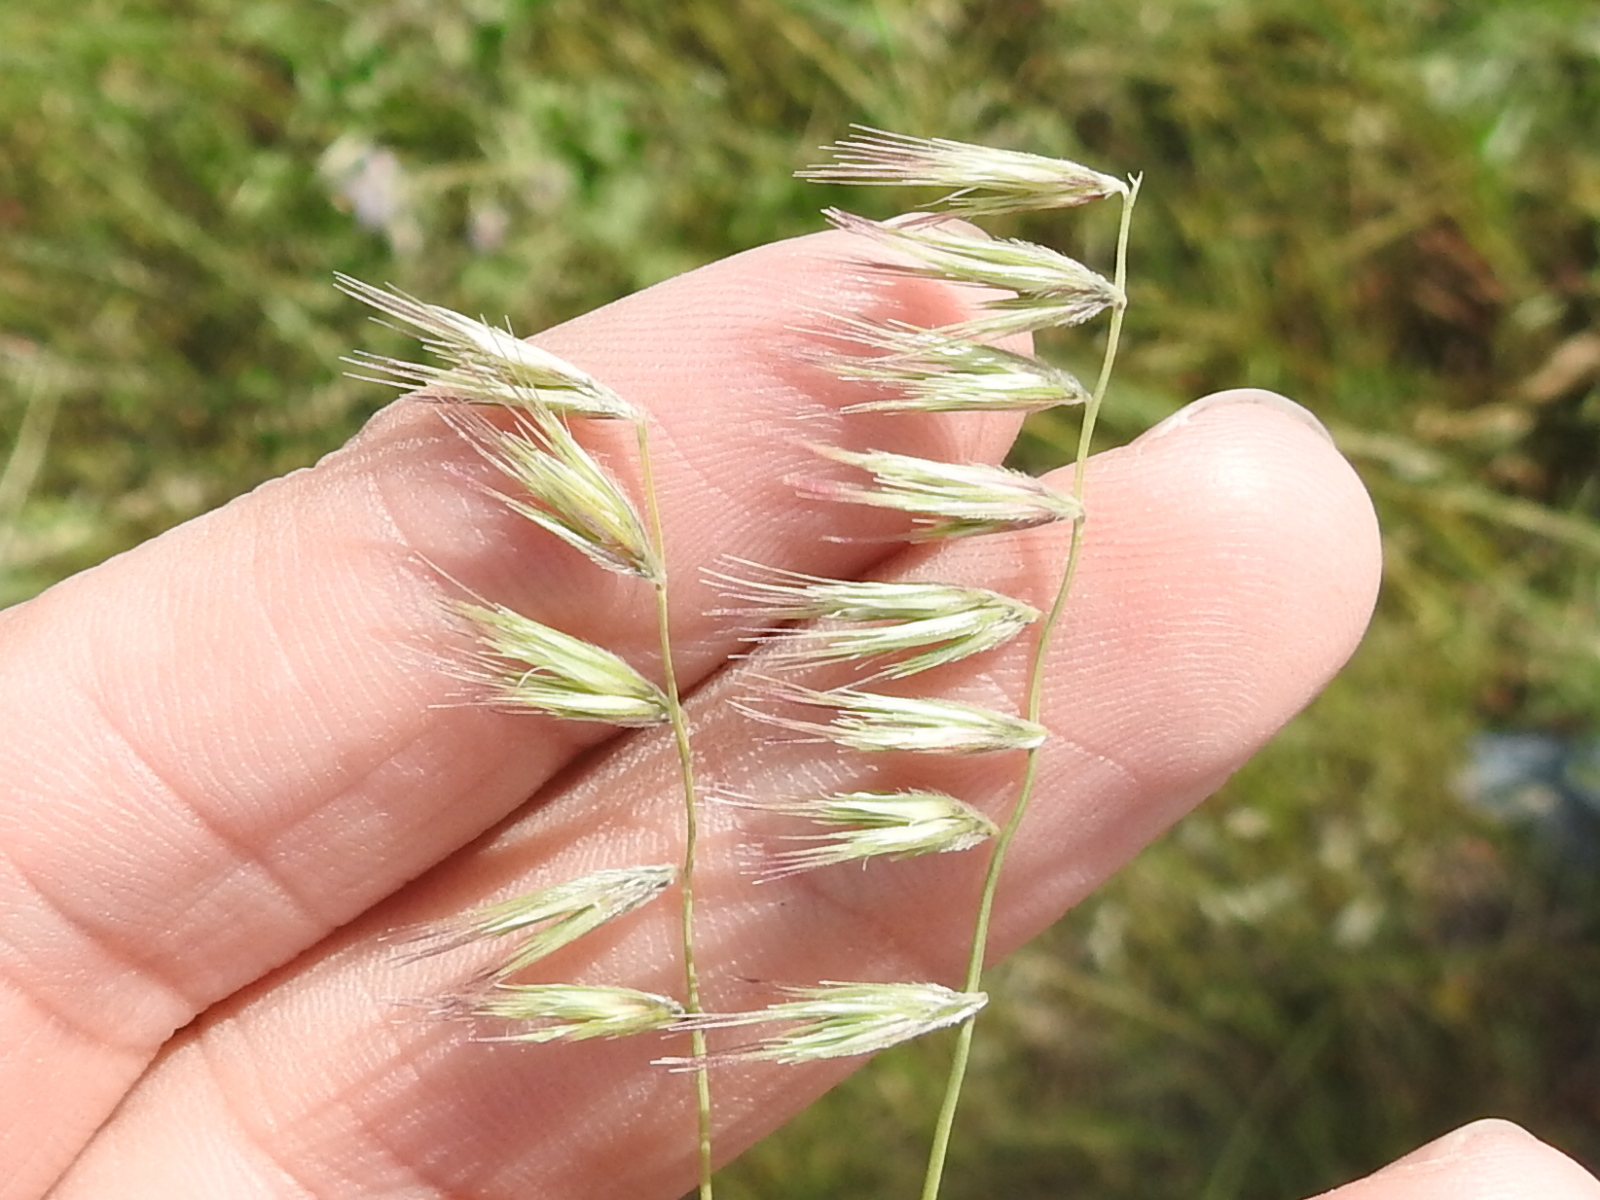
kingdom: Plantae
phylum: Tracheophyta
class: Liliopsida
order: Poales
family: Poaceae
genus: Bouteloua
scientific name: Bouteloua rigidiseta
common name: Texas grama
